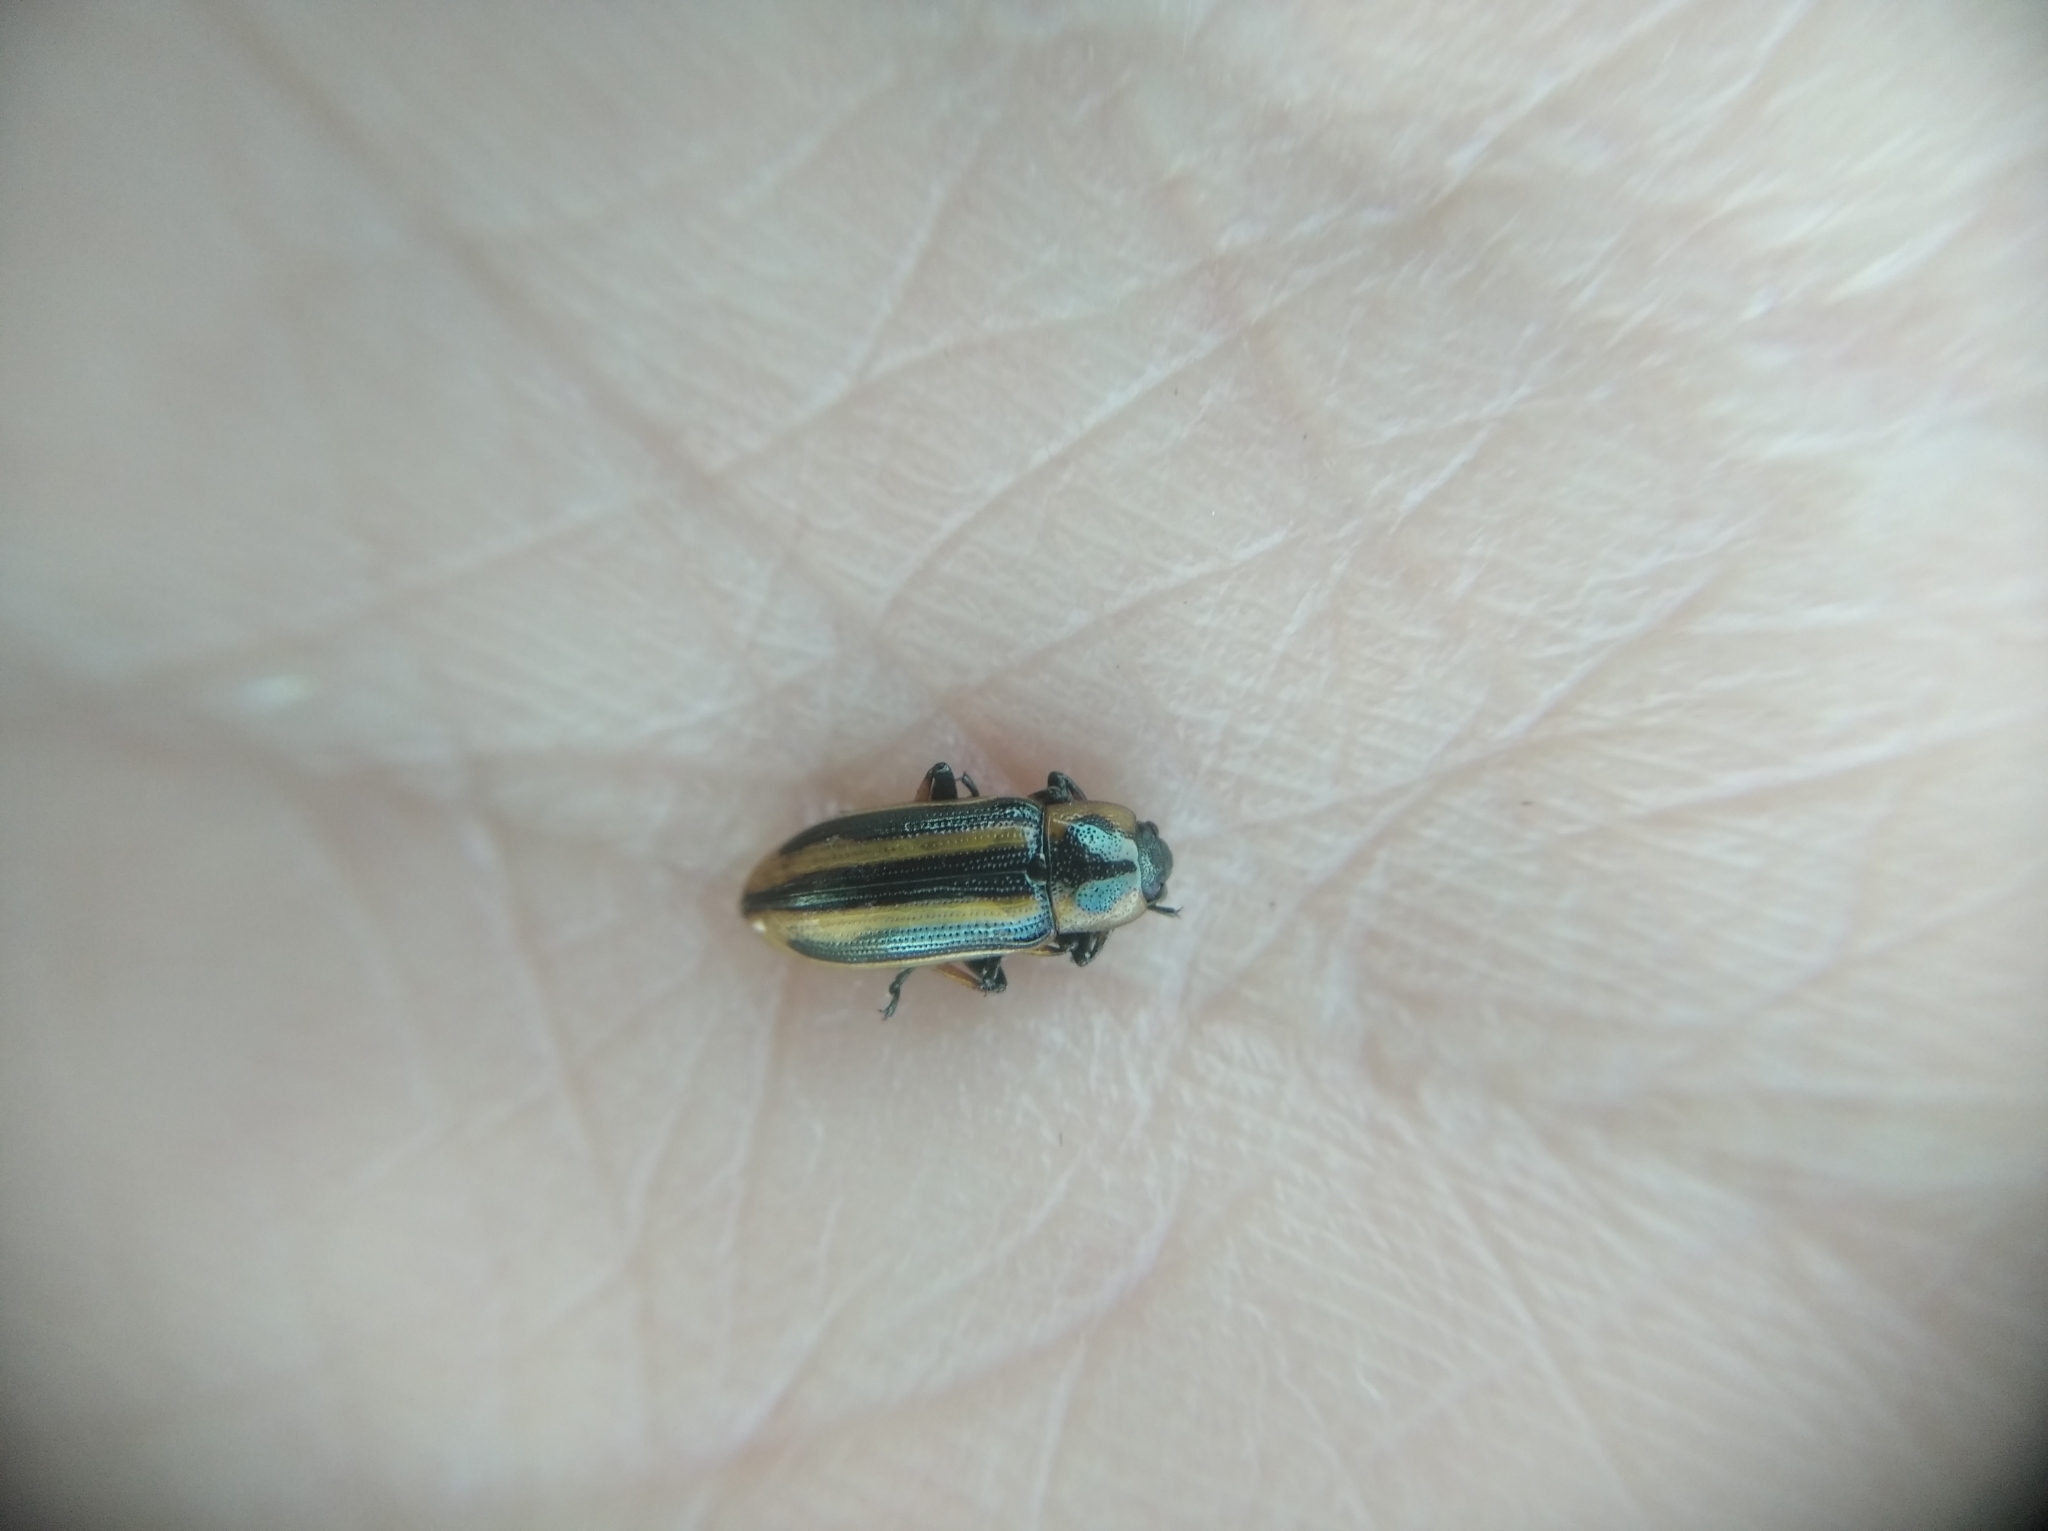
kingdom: Animalia
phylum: Arthropoda
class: Insecta
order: Coleoptera
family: Chrysomelidae
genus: Prasocuris
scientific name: Prasocuris phellandrii
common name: Leaf beetle
